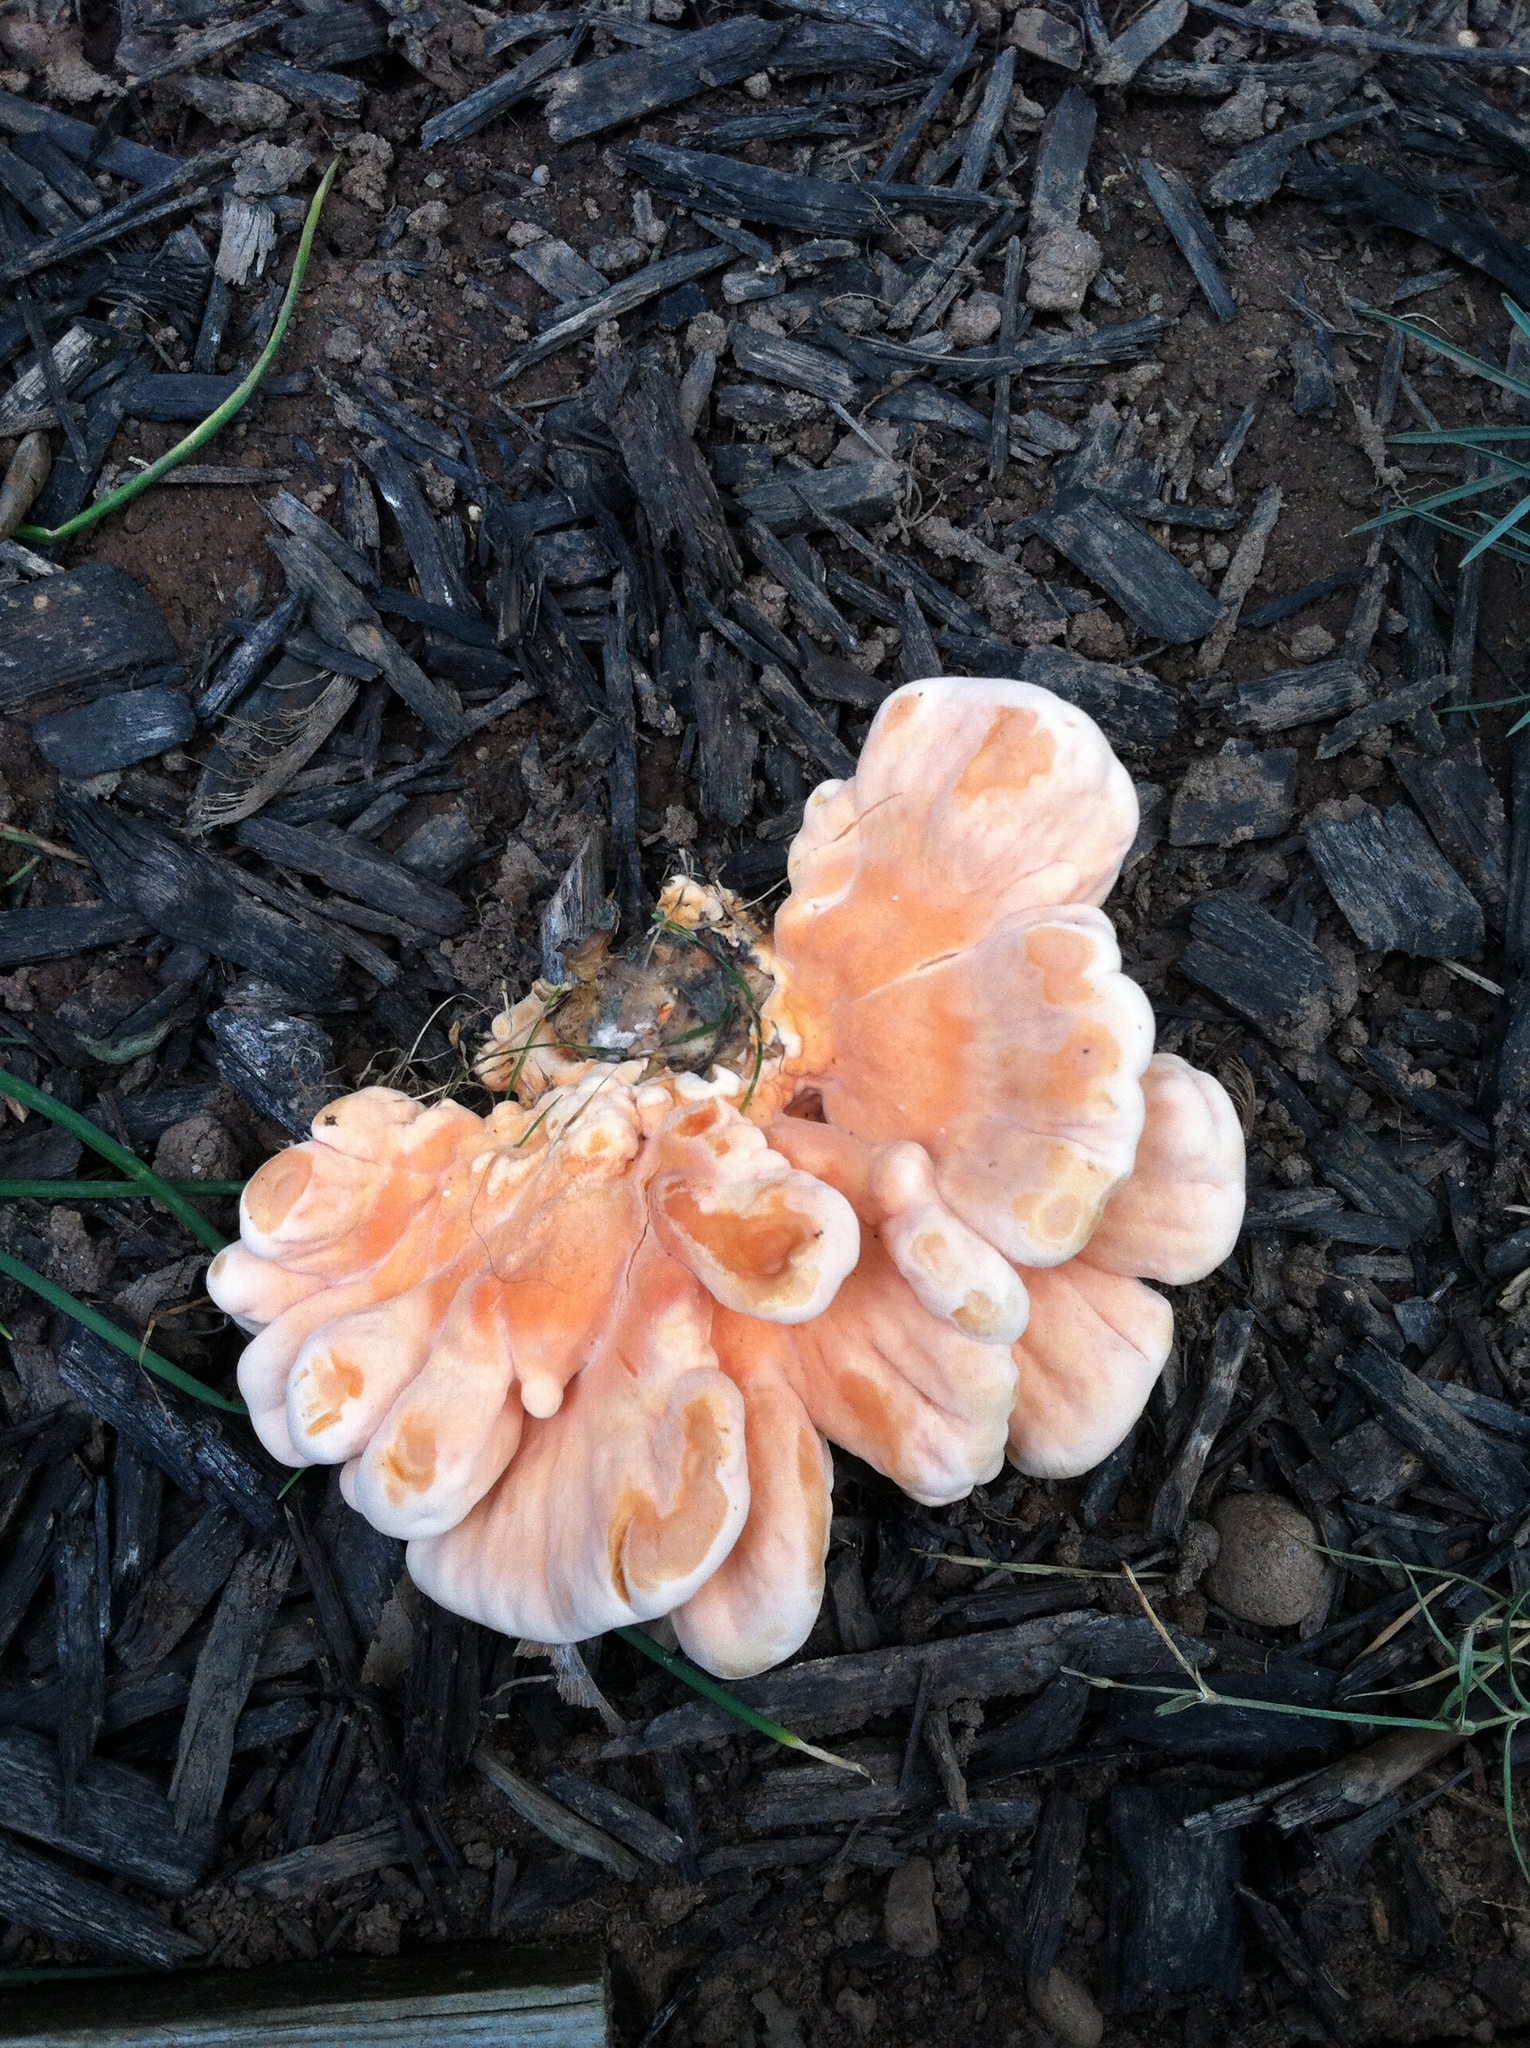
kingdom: Fungi
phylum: Basidiomycota
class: Agaricomycetes
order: Polyporales
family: Laetiporaceae
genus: Laetiporus
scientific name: Laetiporus sulphureus
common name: Chicken of the woods
